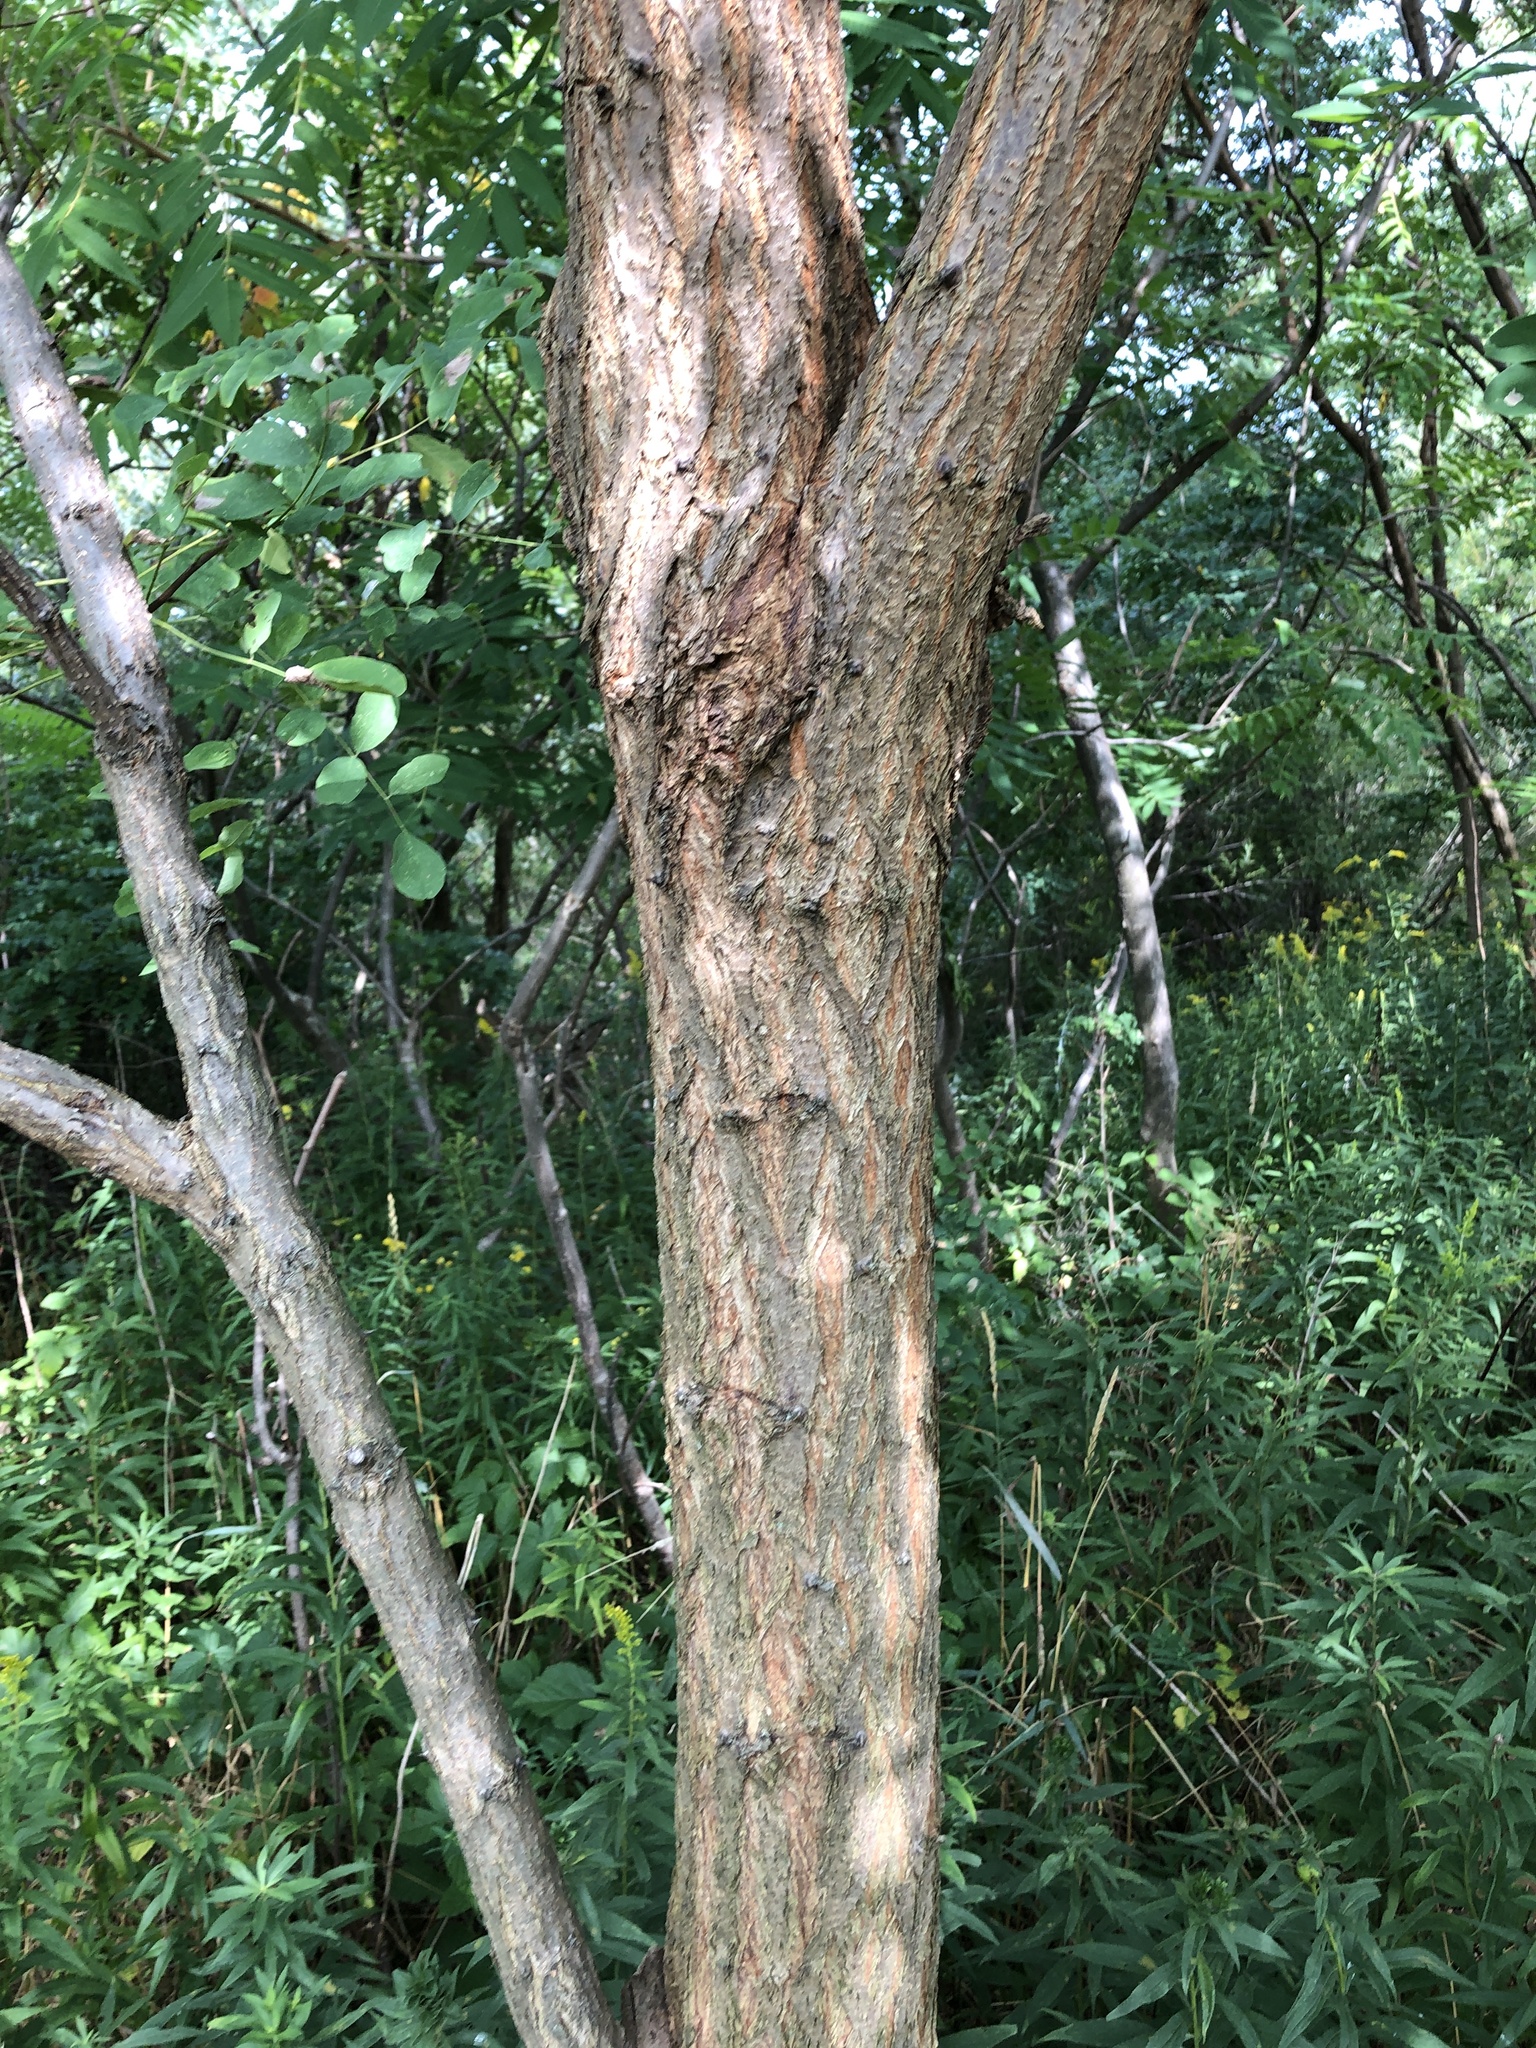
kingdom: Plantae
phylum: Tracheophyta
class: Magnoliopsida
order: Fabales
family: Fabaceae
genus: Robinia
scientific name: Robinia pseudoacacia
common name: Black locust
